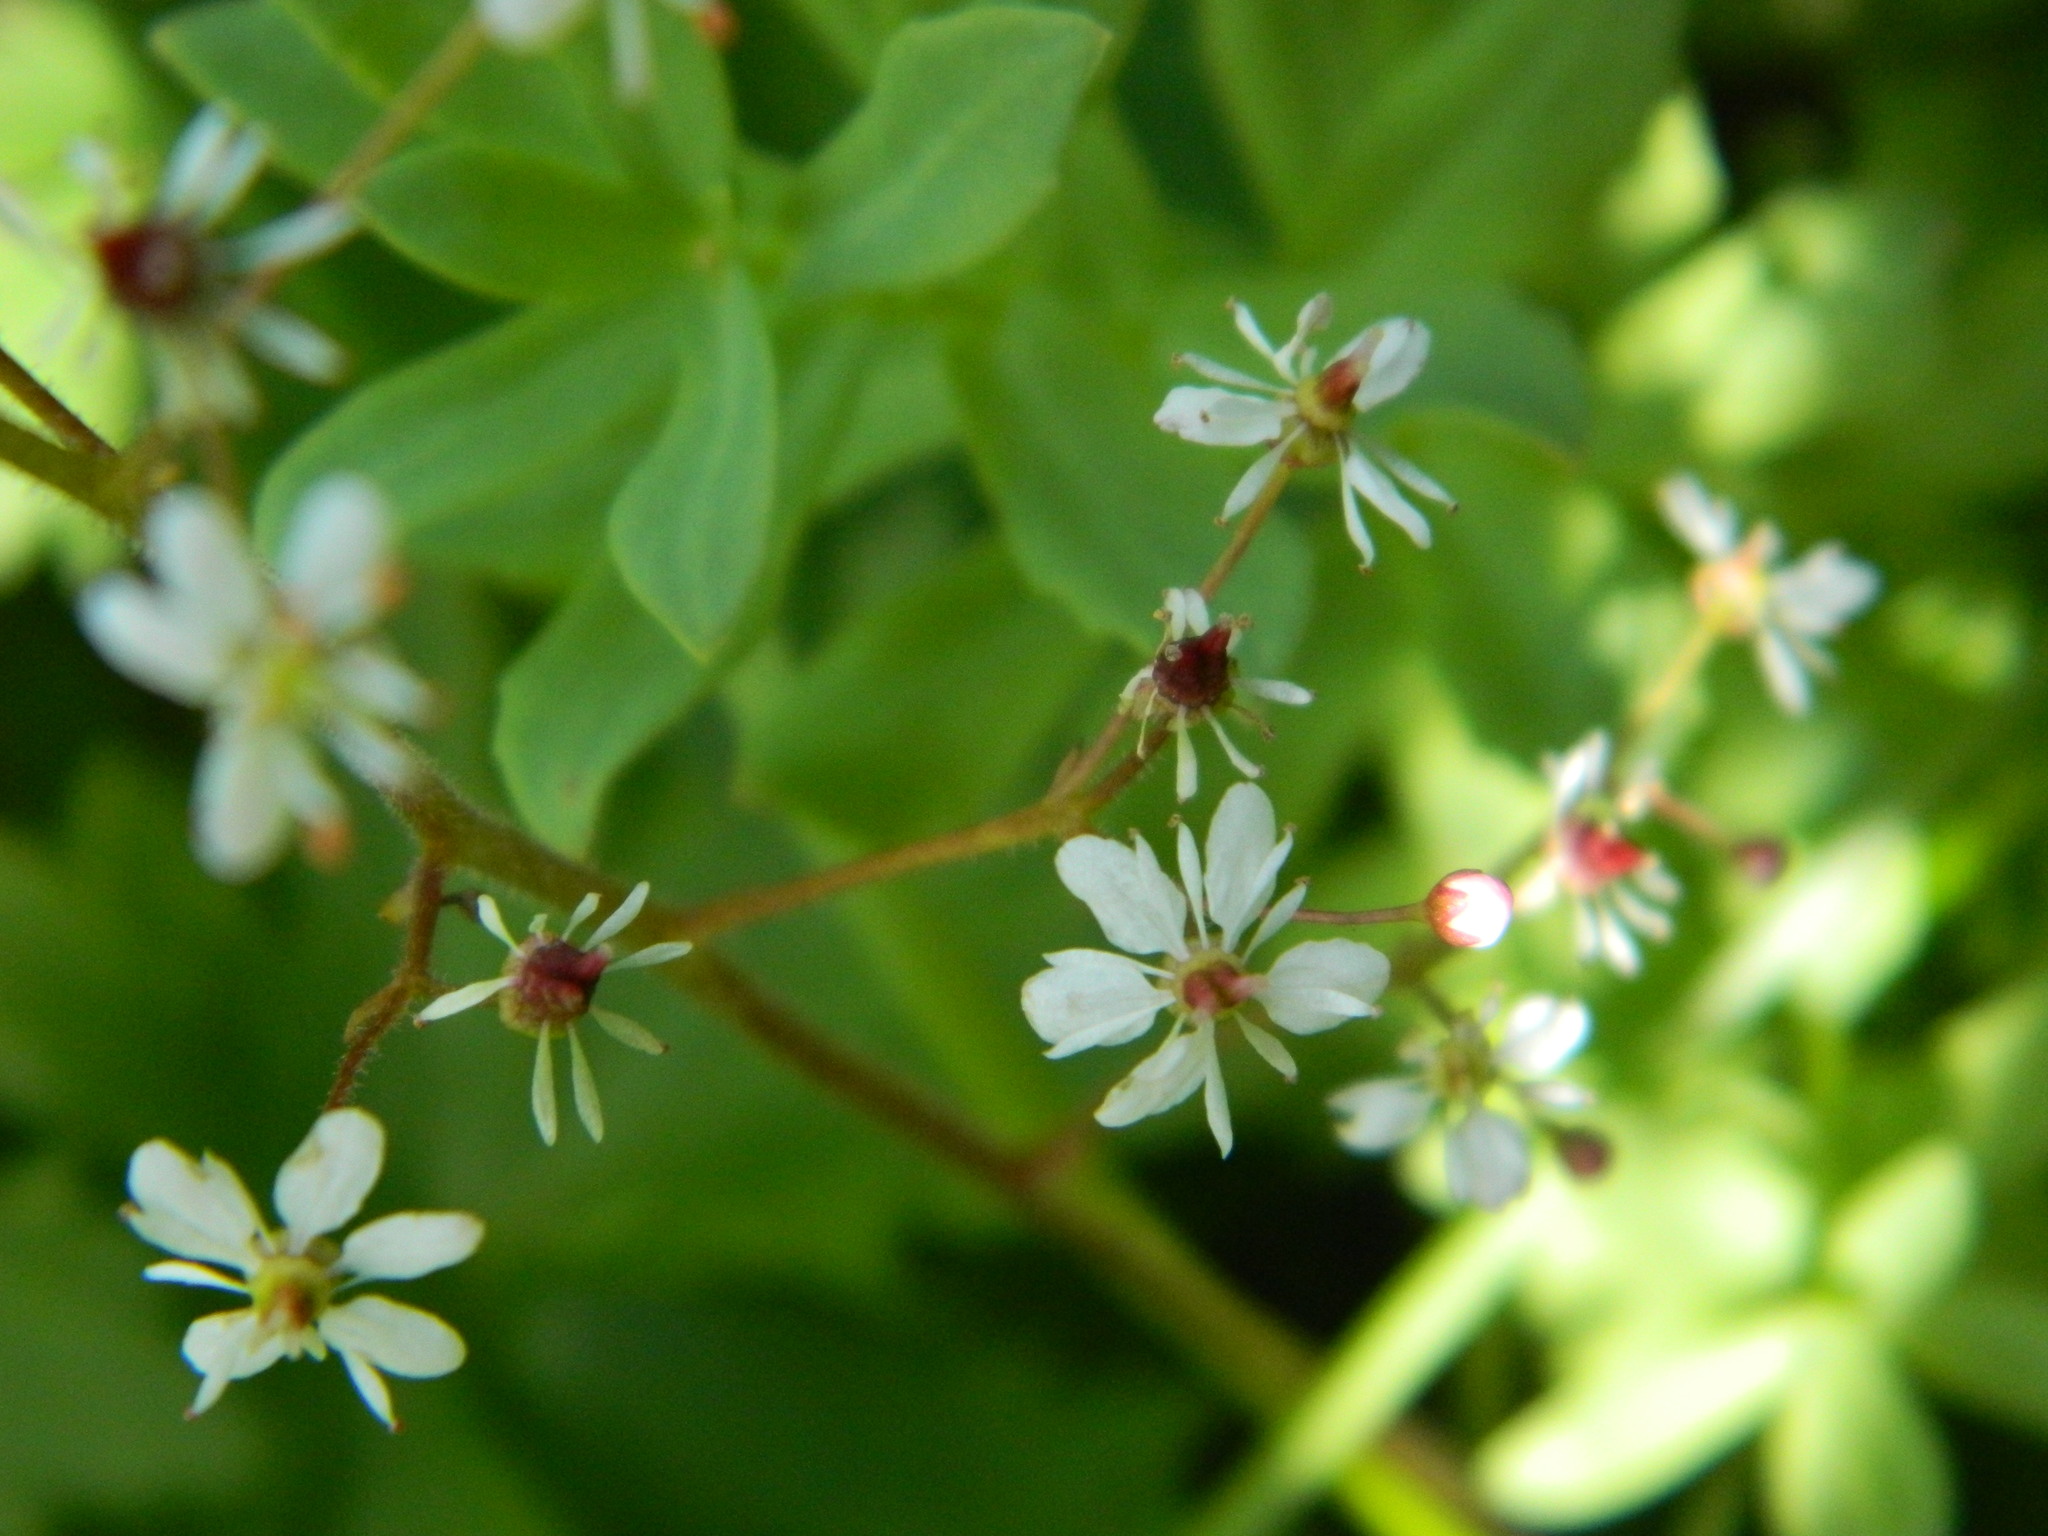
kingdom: Plantae
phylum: Tracheophyta
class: Magnoliopsida
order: Saxifragales
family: Saxifragaceae
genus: Micranthes
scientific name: Micranthes nelsoniana
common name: Nelson's saxifrage
